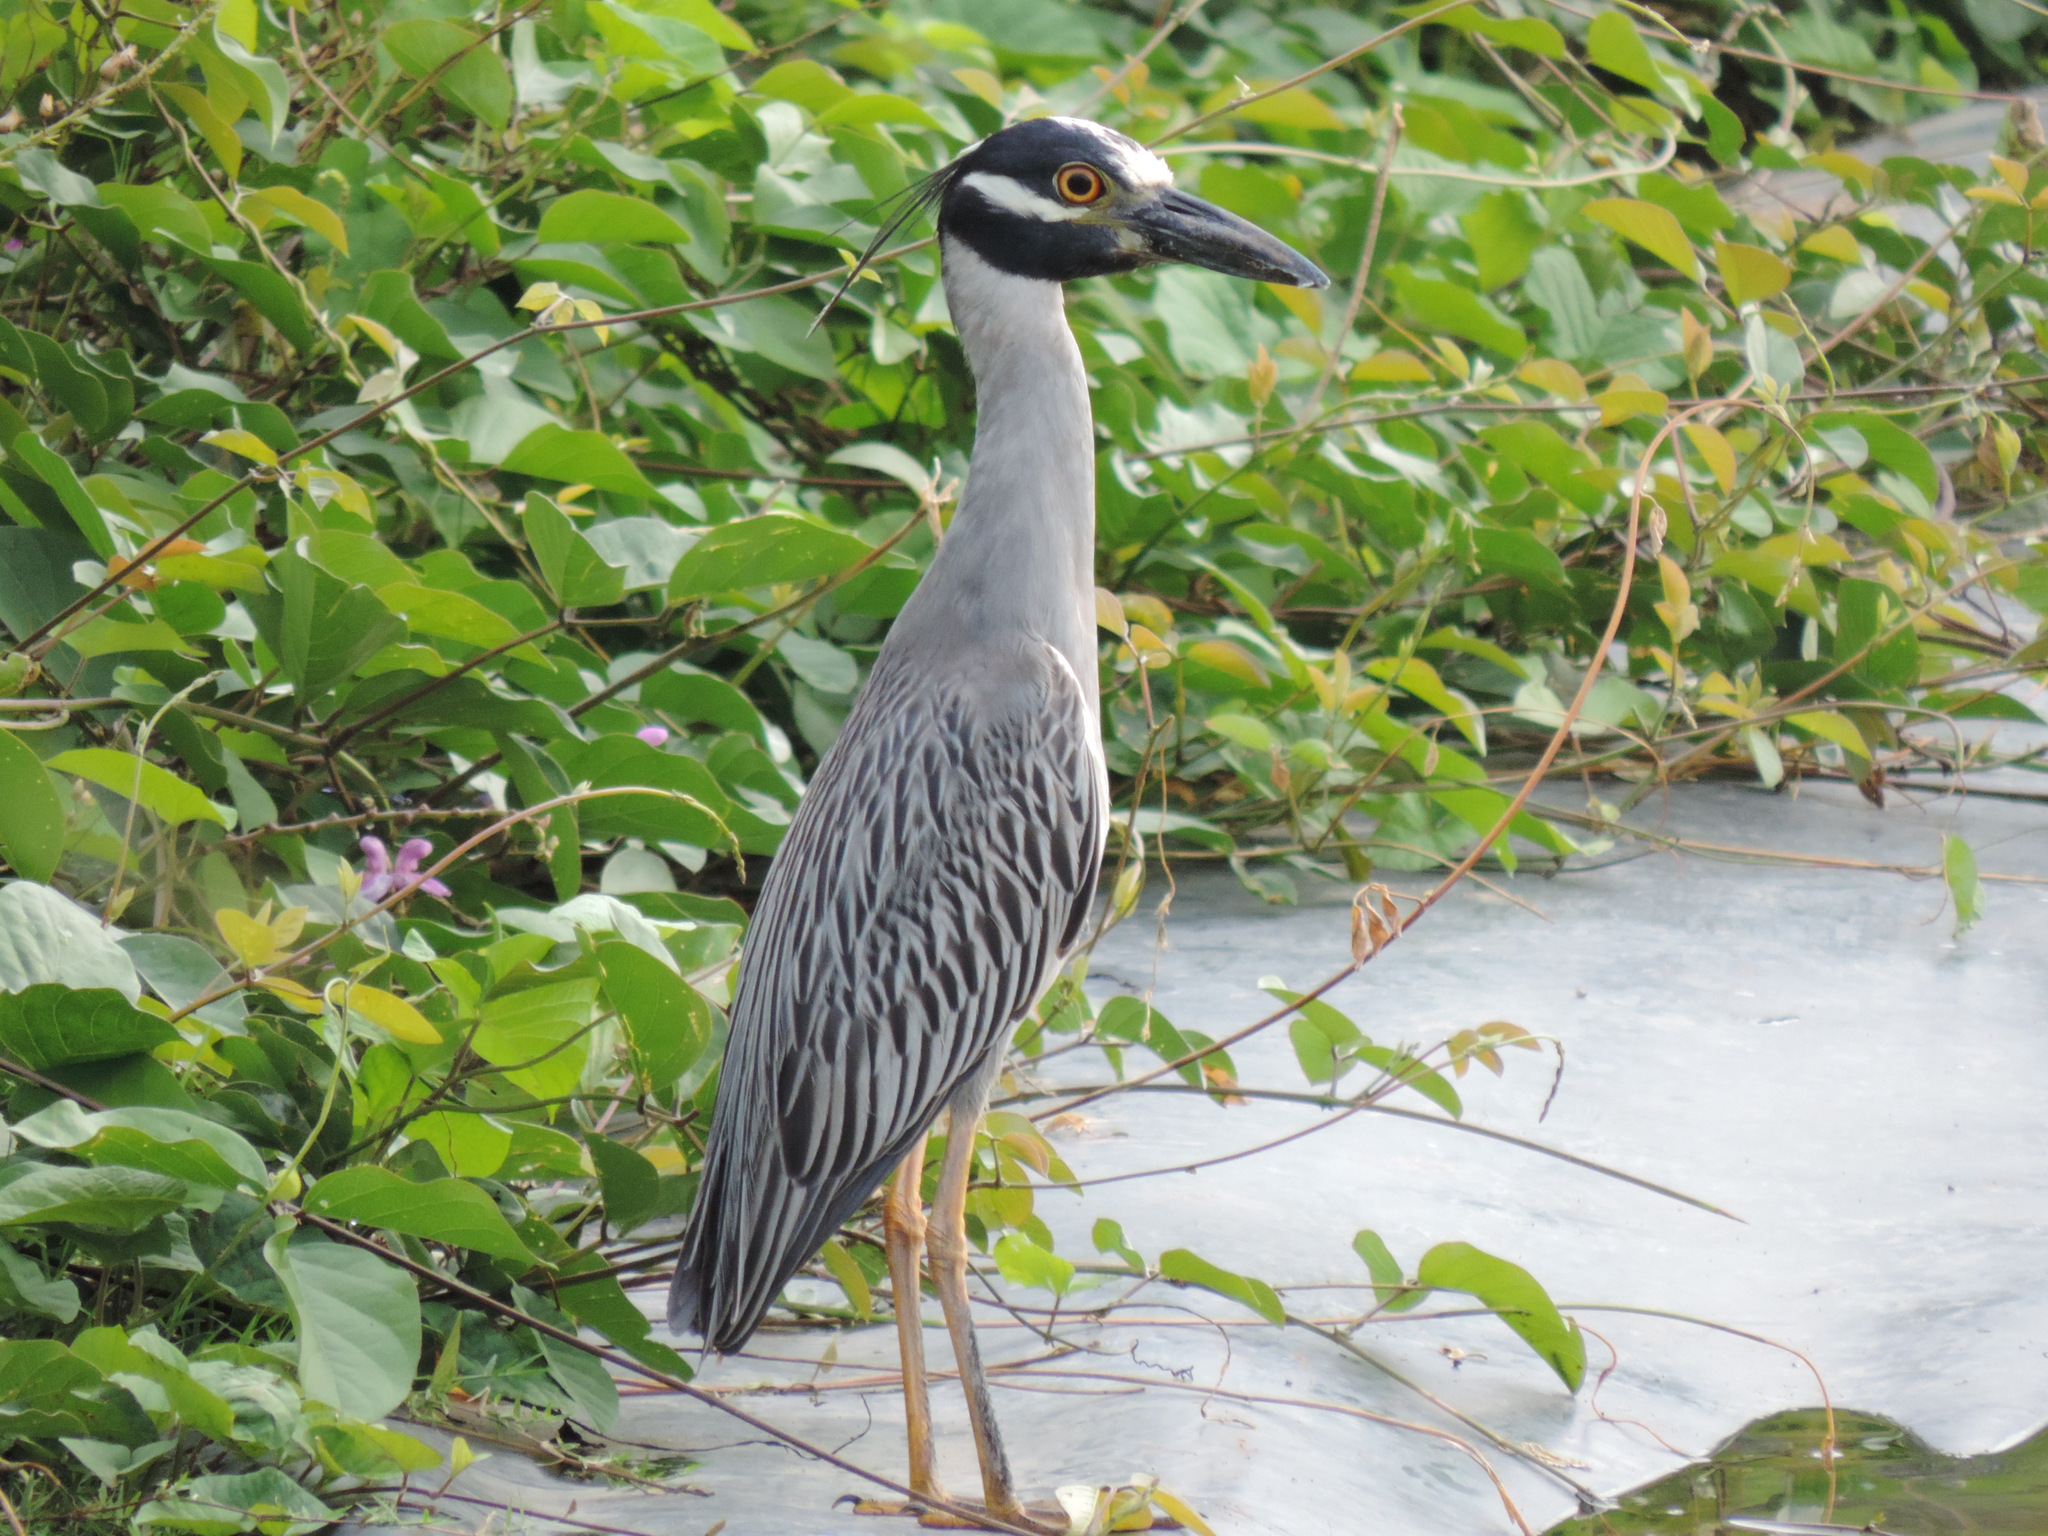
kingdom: Animalia
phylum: Chordata
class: Aves
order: Pelecaniformes
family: Ardeidae
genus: Nyctanassa
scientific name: Nyctanassa violacea
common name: Yellow-crowned night heron
